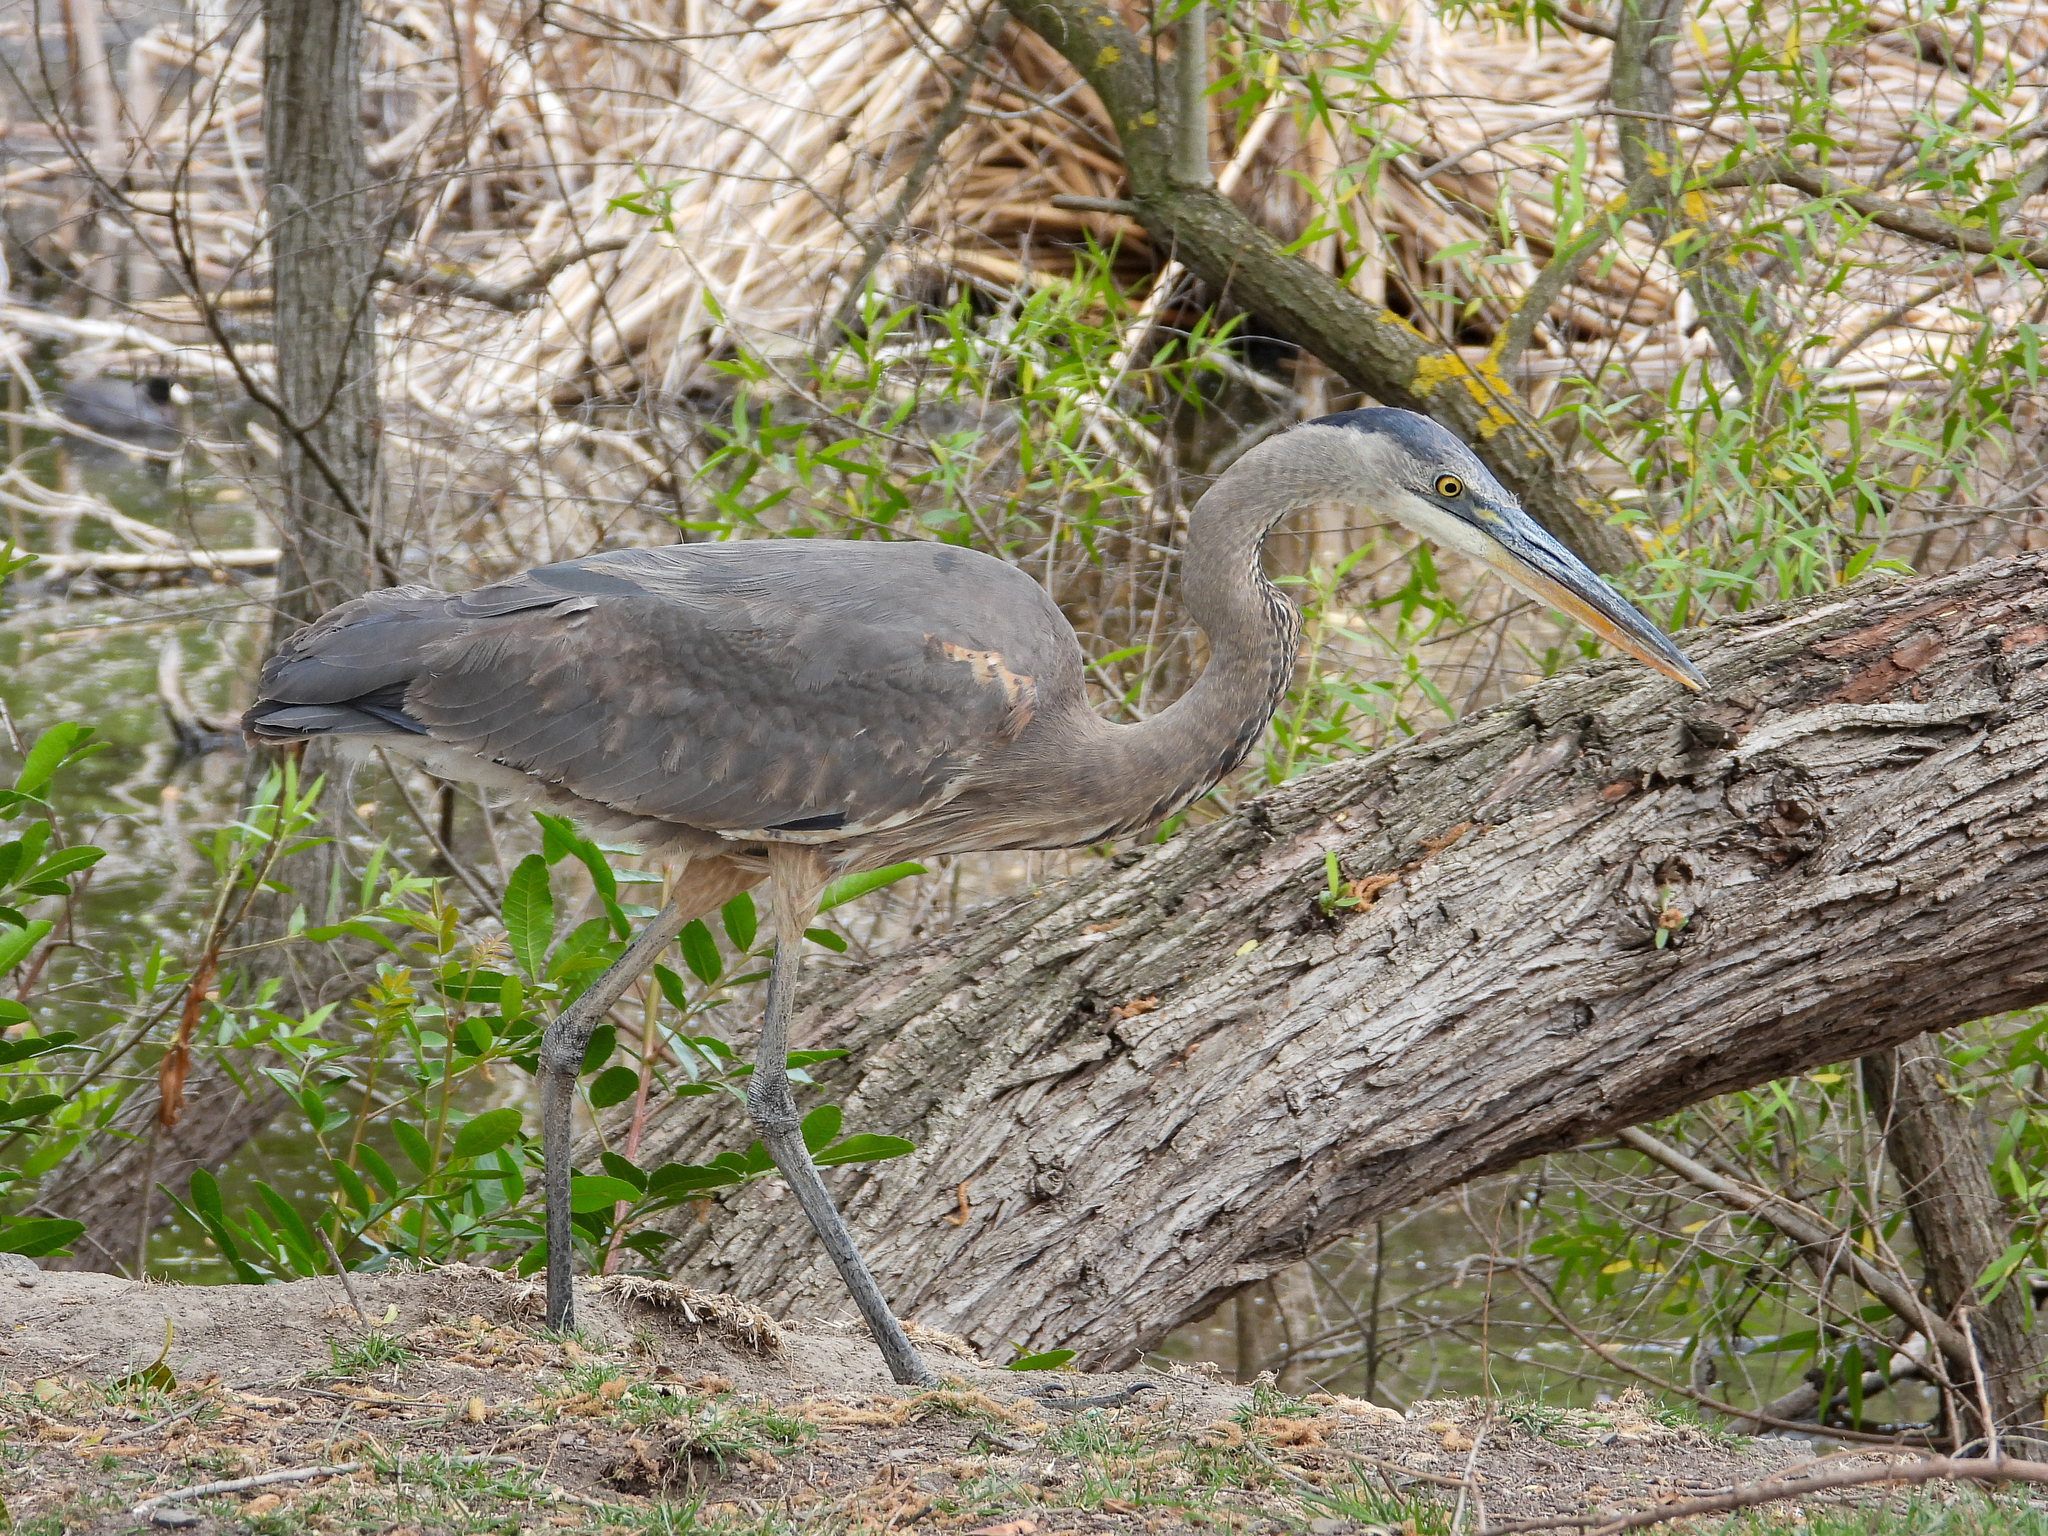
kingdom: Animalia
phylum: Chordata
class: Aves
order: Pelecaniformes
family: Ardeidae
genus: Ardea
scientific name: Ardea herodias
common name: Great blue heron
